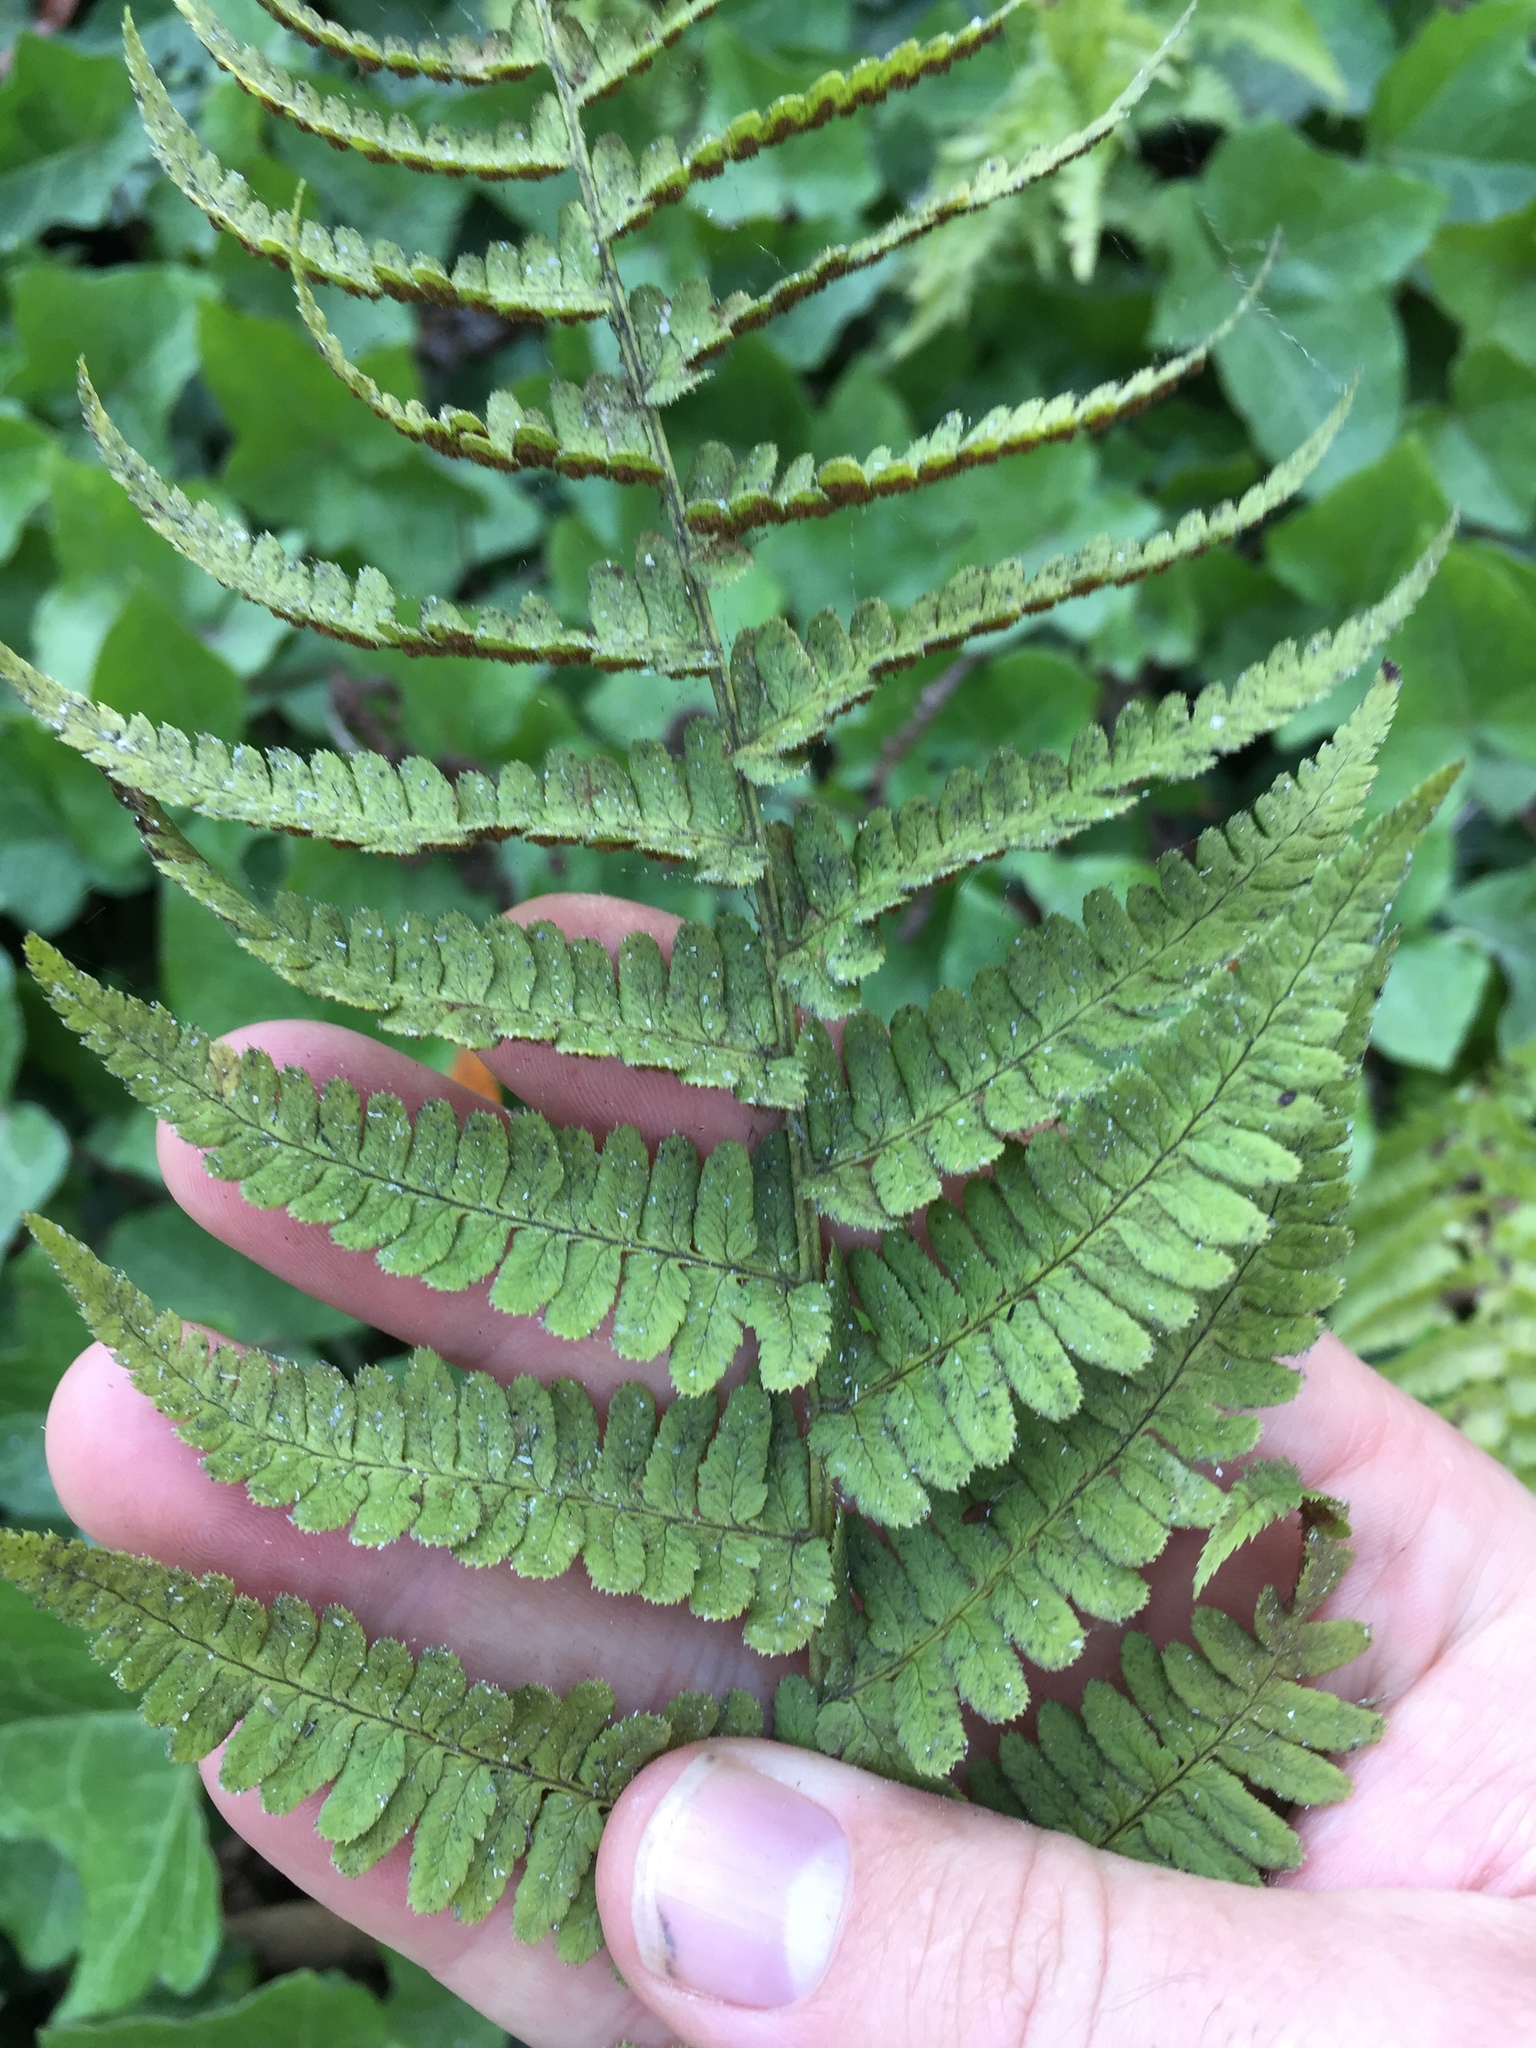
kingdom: Plantae
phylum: Tracheophyta
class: Polypodiopsida
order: Polypodiales
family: Dryopteridaceae
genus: Dryopteris
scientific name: Dryopteris arguta
